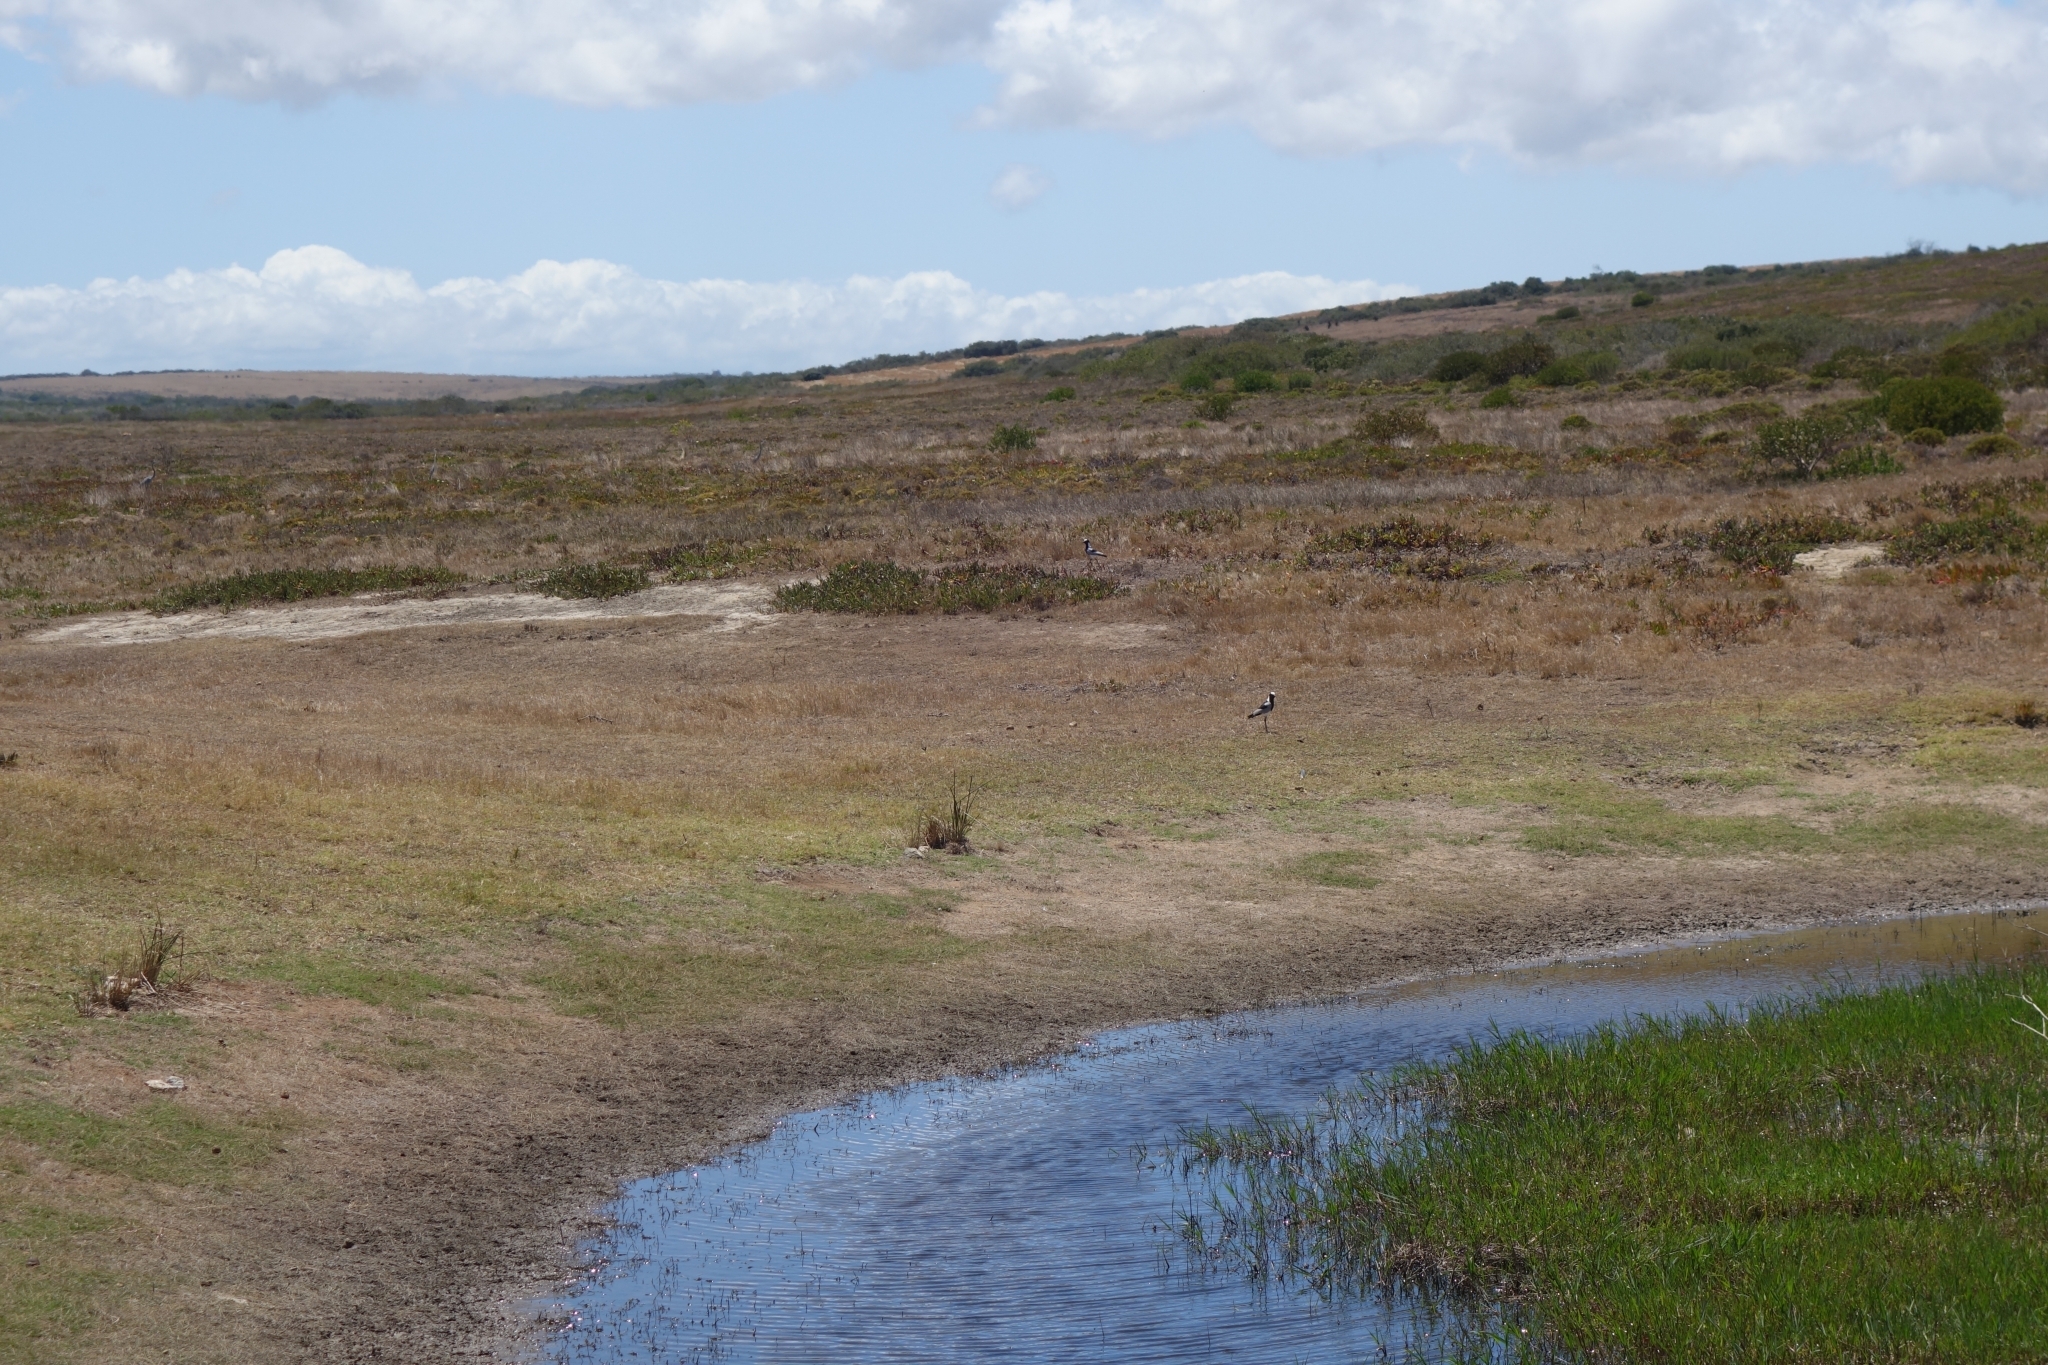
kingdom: Animalia
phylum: Chordata
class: Aves
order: Charadriiformes
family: Charadriidae
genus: Vanellus
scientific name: Vanellus armatus
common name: Blacksmith lapwing
